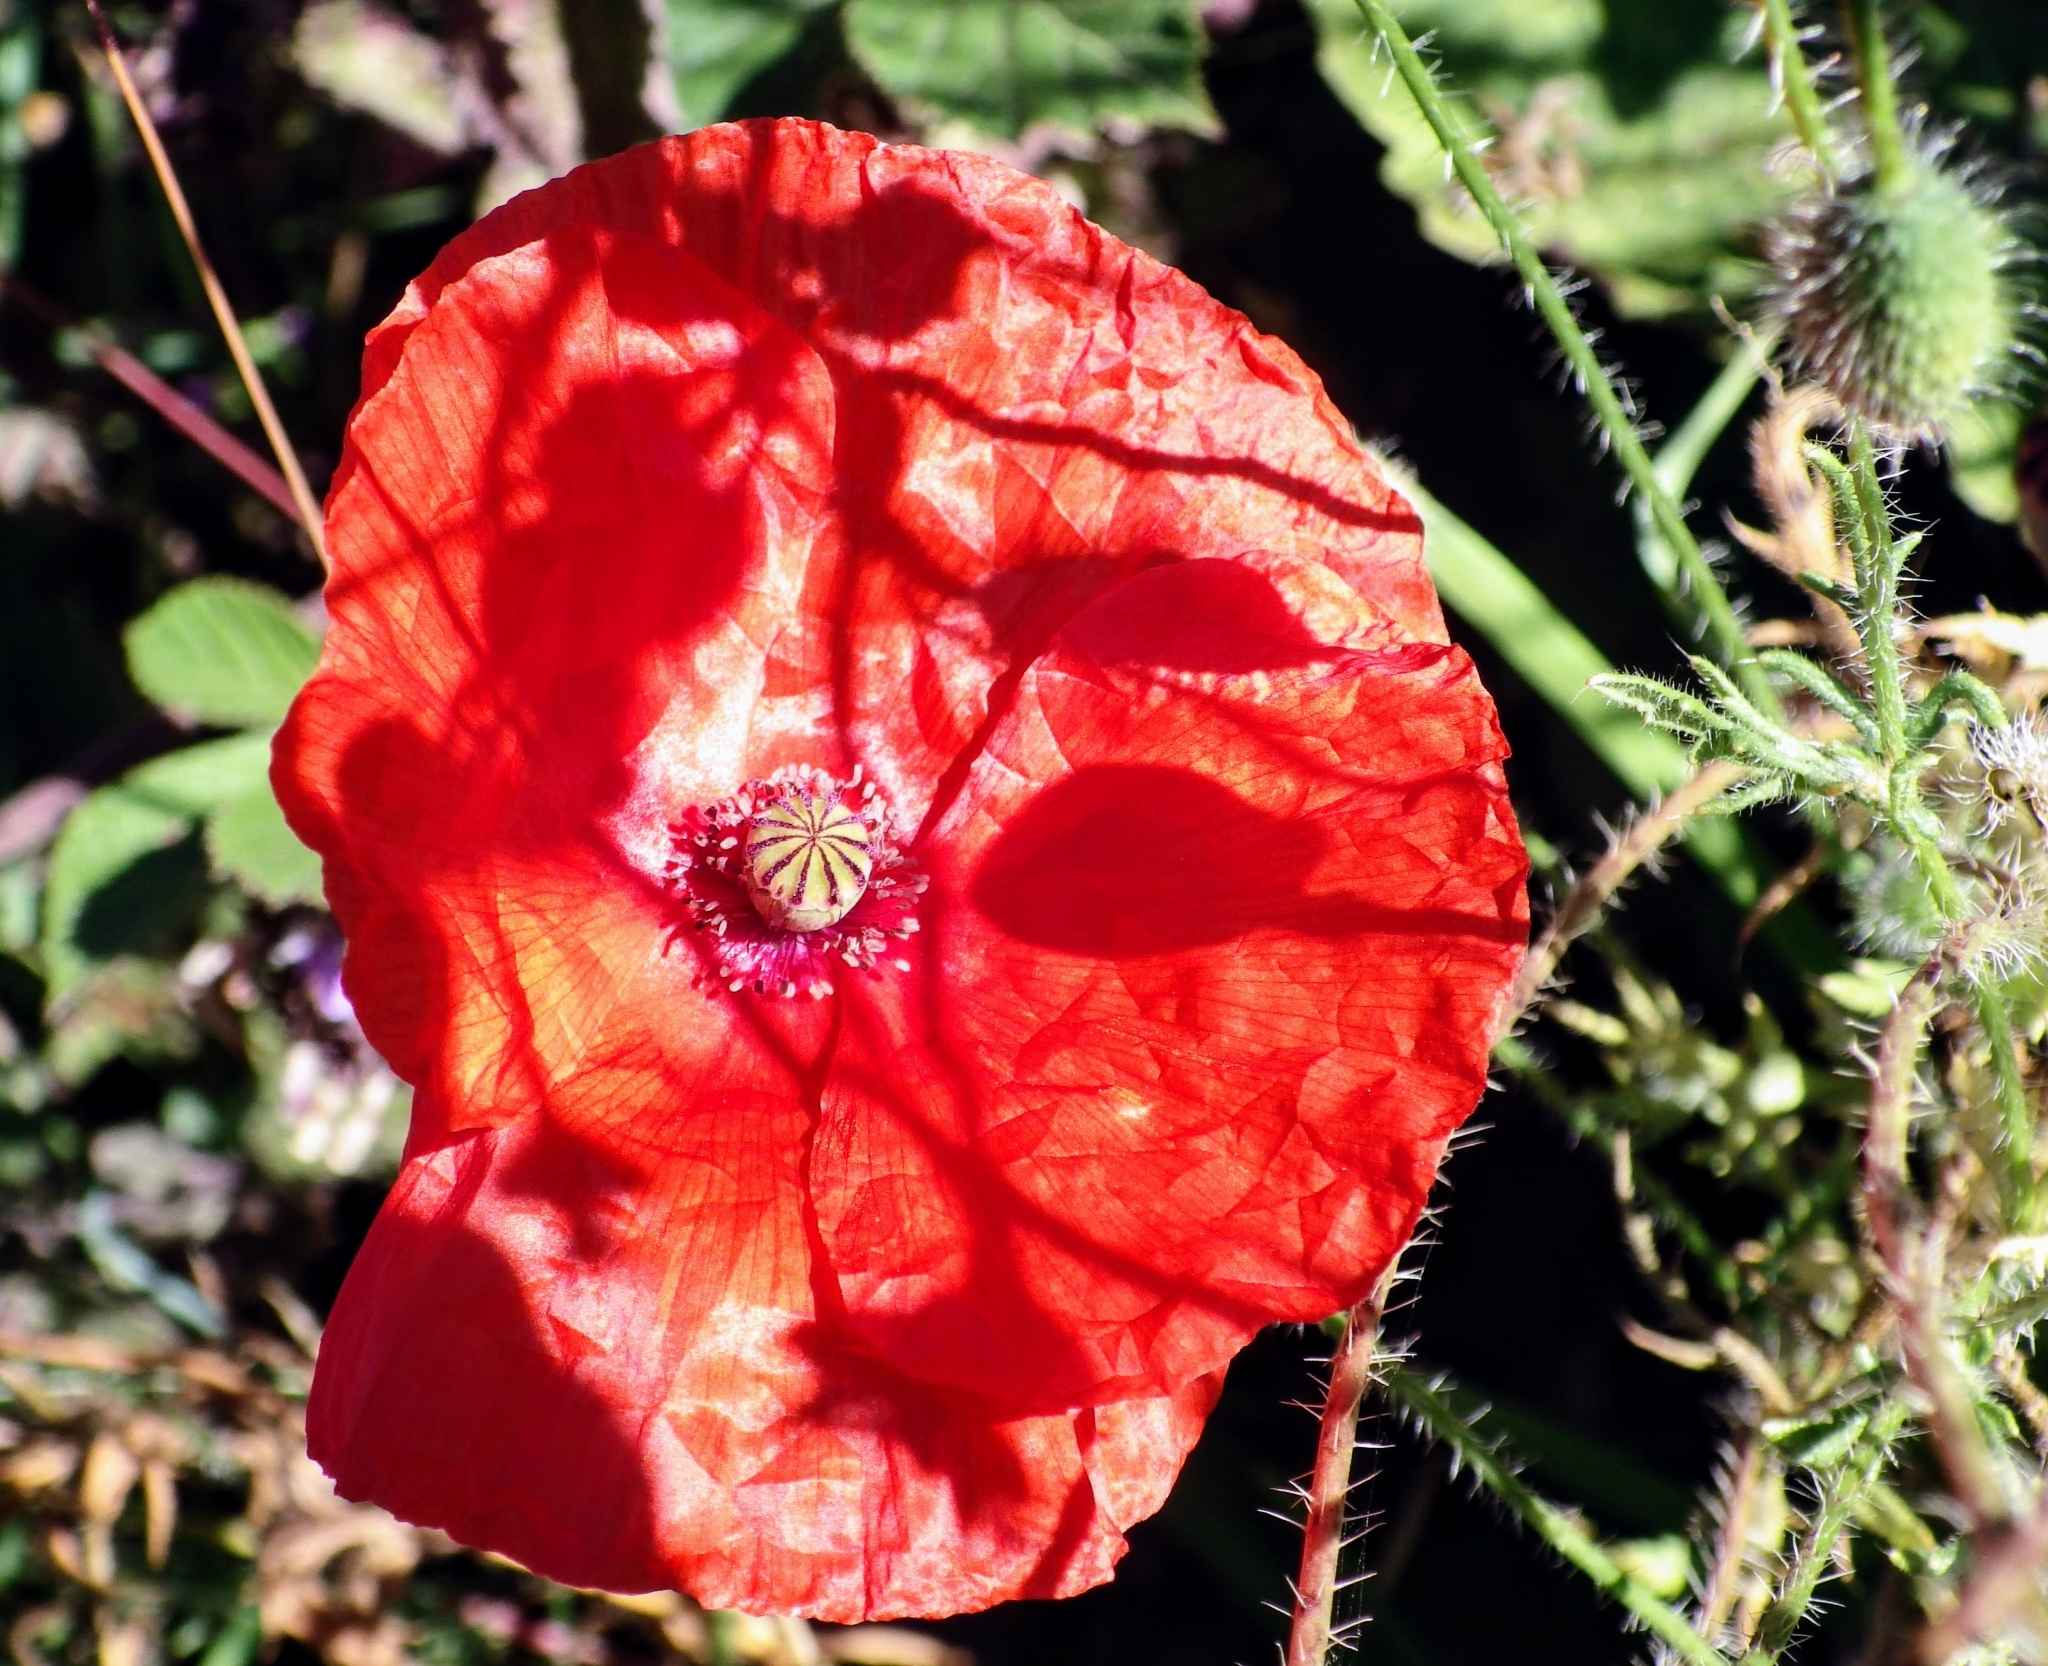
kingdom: Plantae
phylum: Tracheophyta
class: Magnoliopsida
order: Ranunculales
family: Papaveraceae
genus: Papaver
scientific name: Papaver rhoeas
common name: Corn poppy
